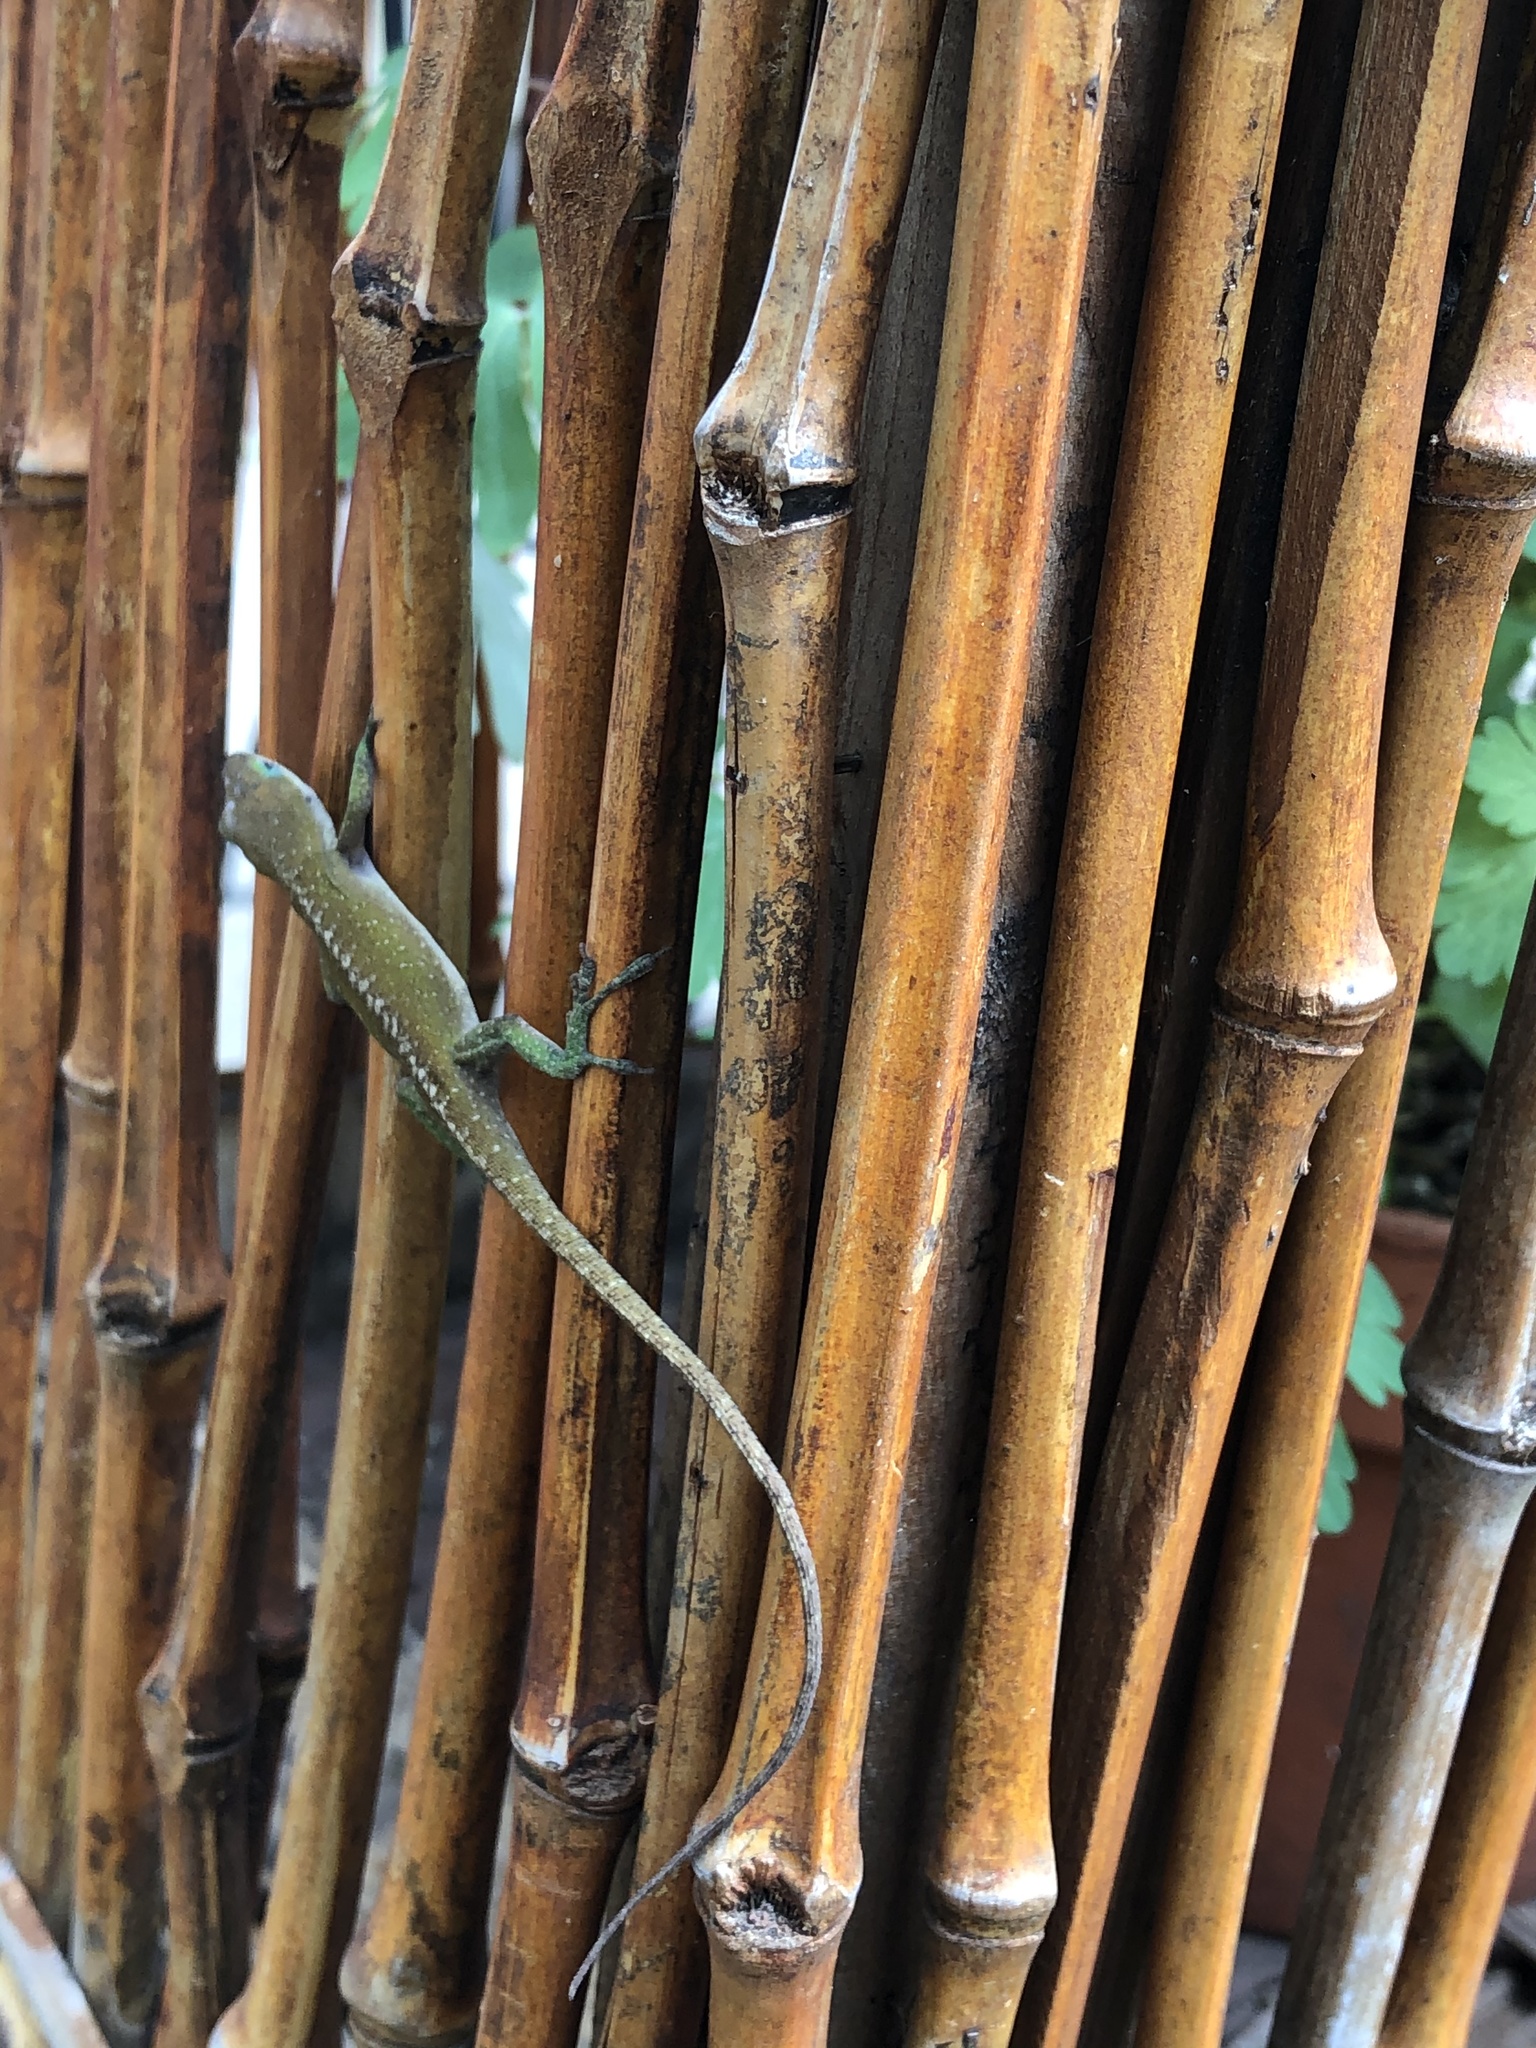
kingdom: Animalia
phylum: Chordata
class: Squamata
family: Dactyloidae
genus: Anolis
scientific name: Anolis carolinensis
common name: Green anole
